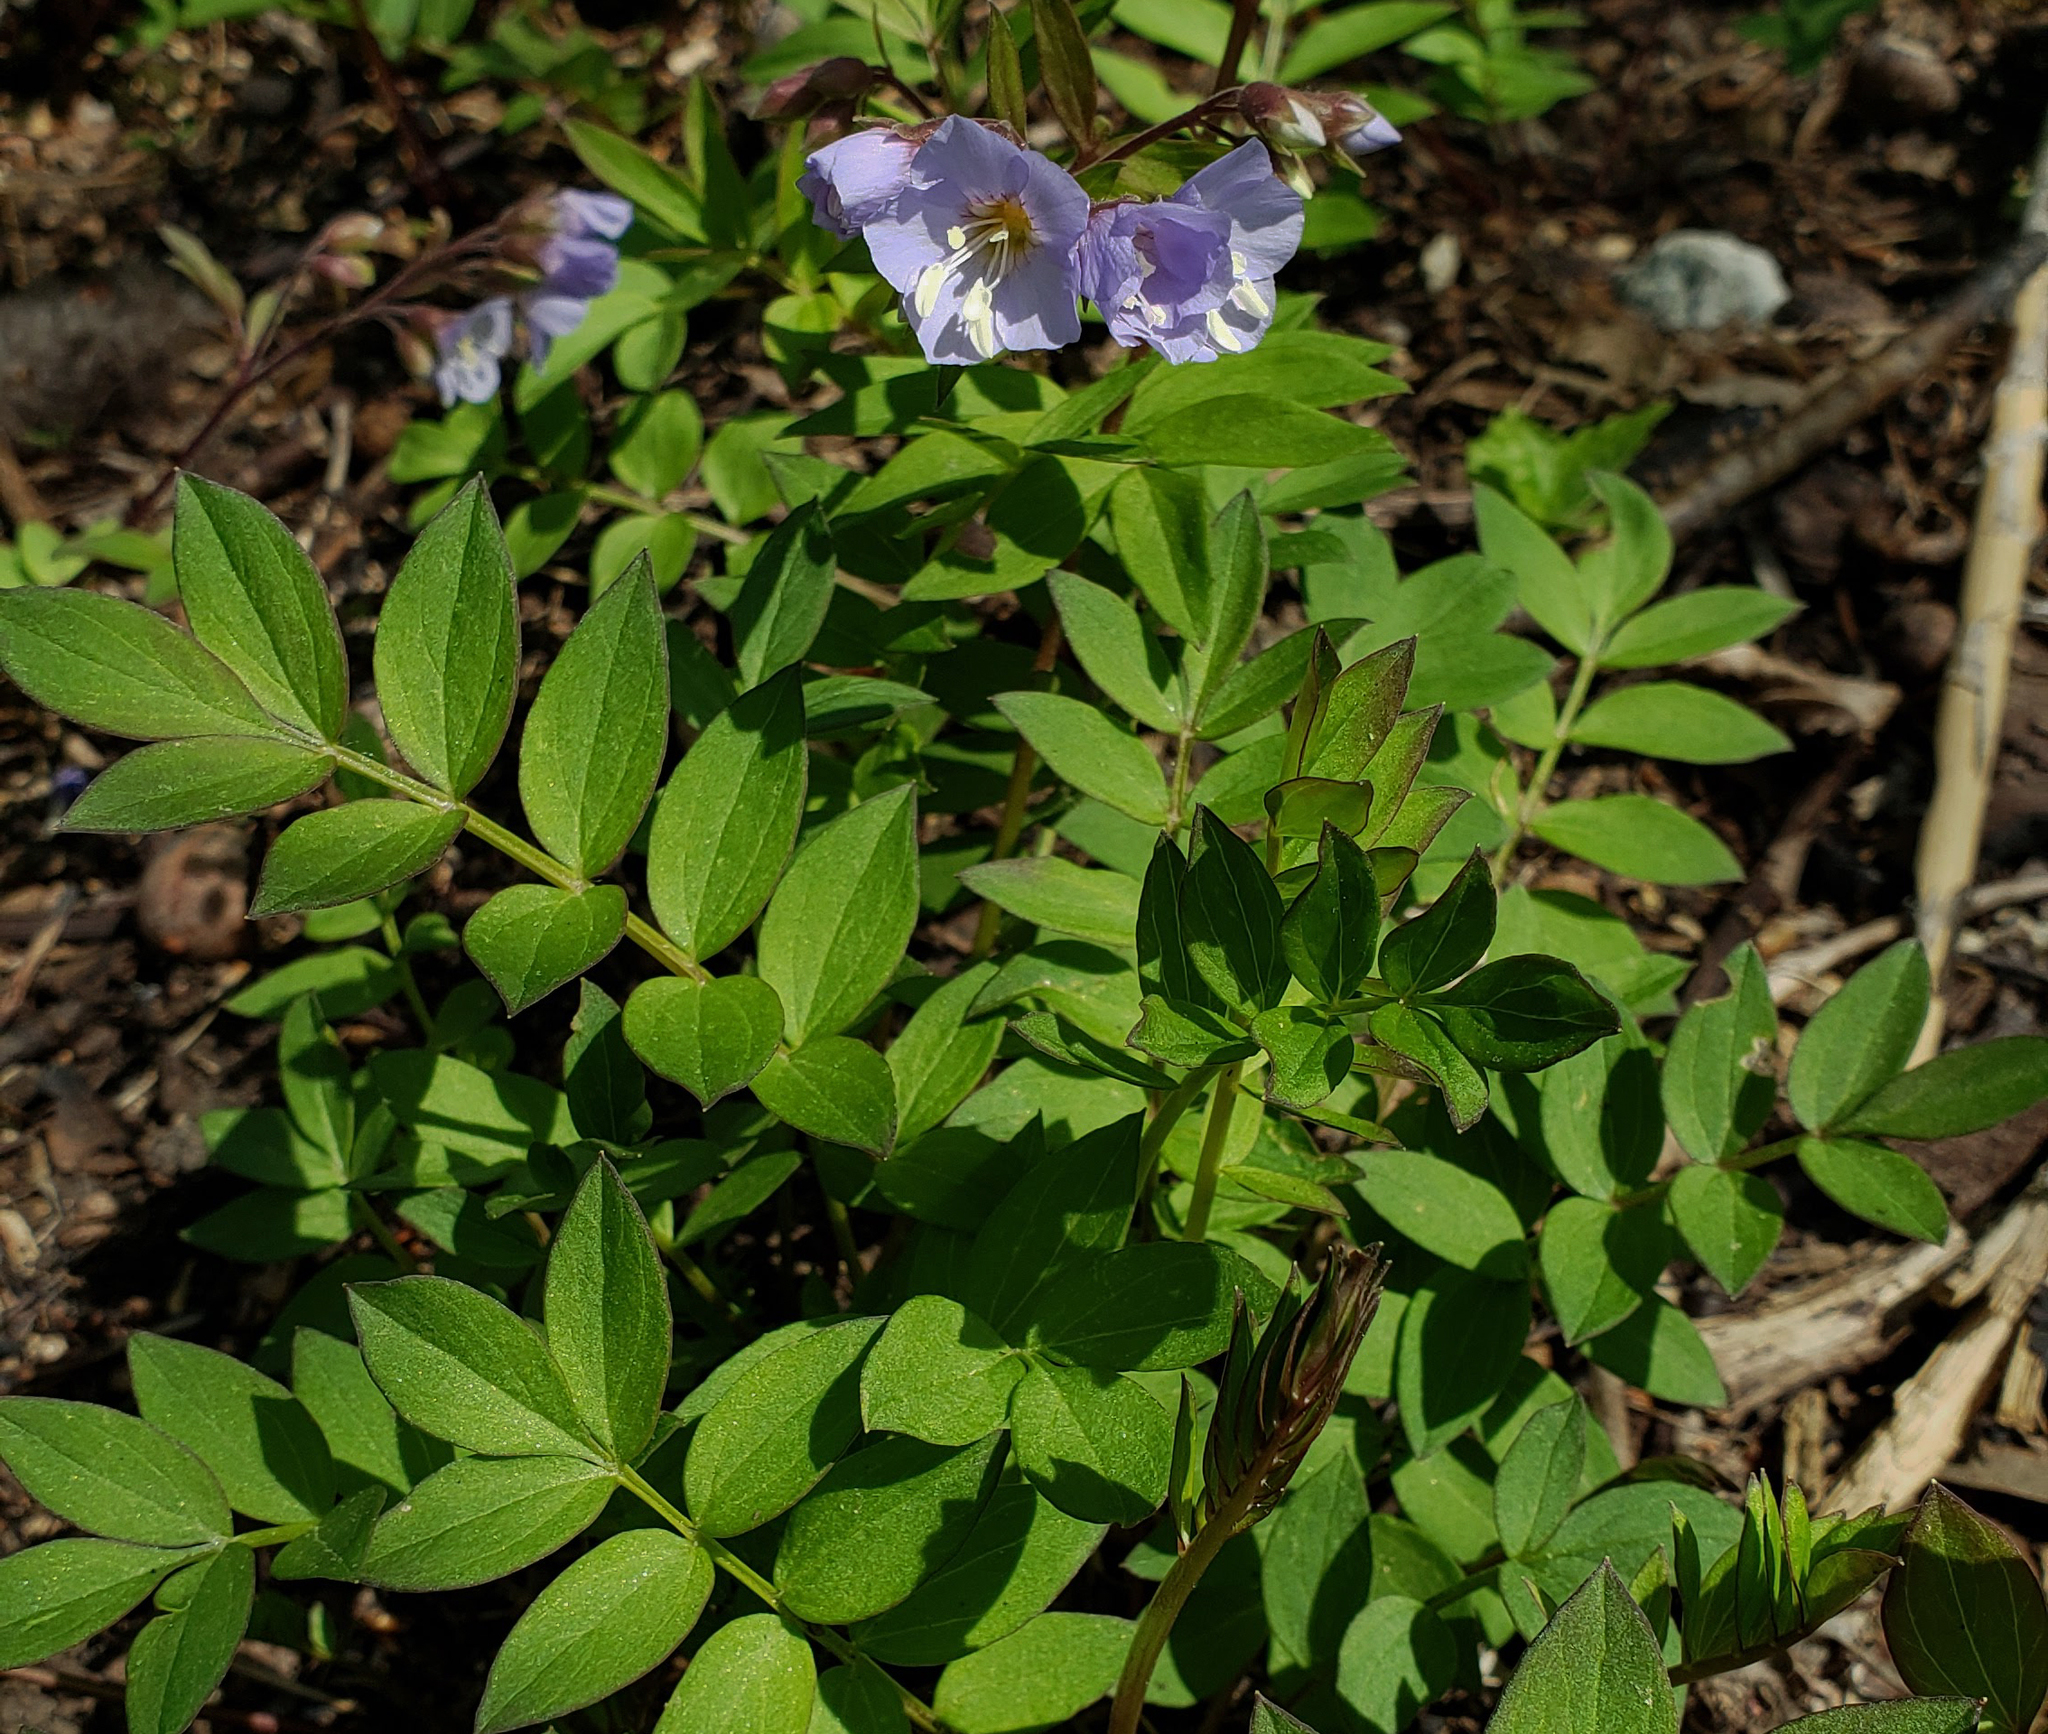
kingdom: Plantae
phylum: Tracheophyta
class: Magnoliopsida
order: Ericales
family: Polemoniaceae
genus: Polemonium
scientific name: Polemonium reptans
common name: Creeping jacob's-ladder
